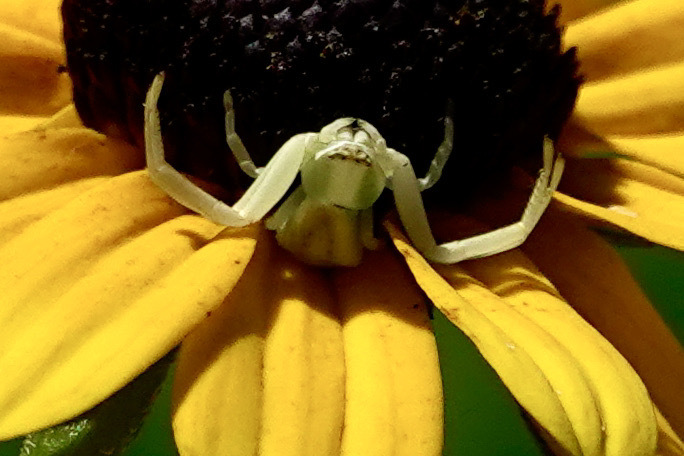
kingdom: Animalia
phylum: Arthropoda
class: Arachnida
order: Araneae
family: Thomisidae
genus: Misumenoides
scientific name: Misumenoides formosipes
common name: White-banded crab spider
